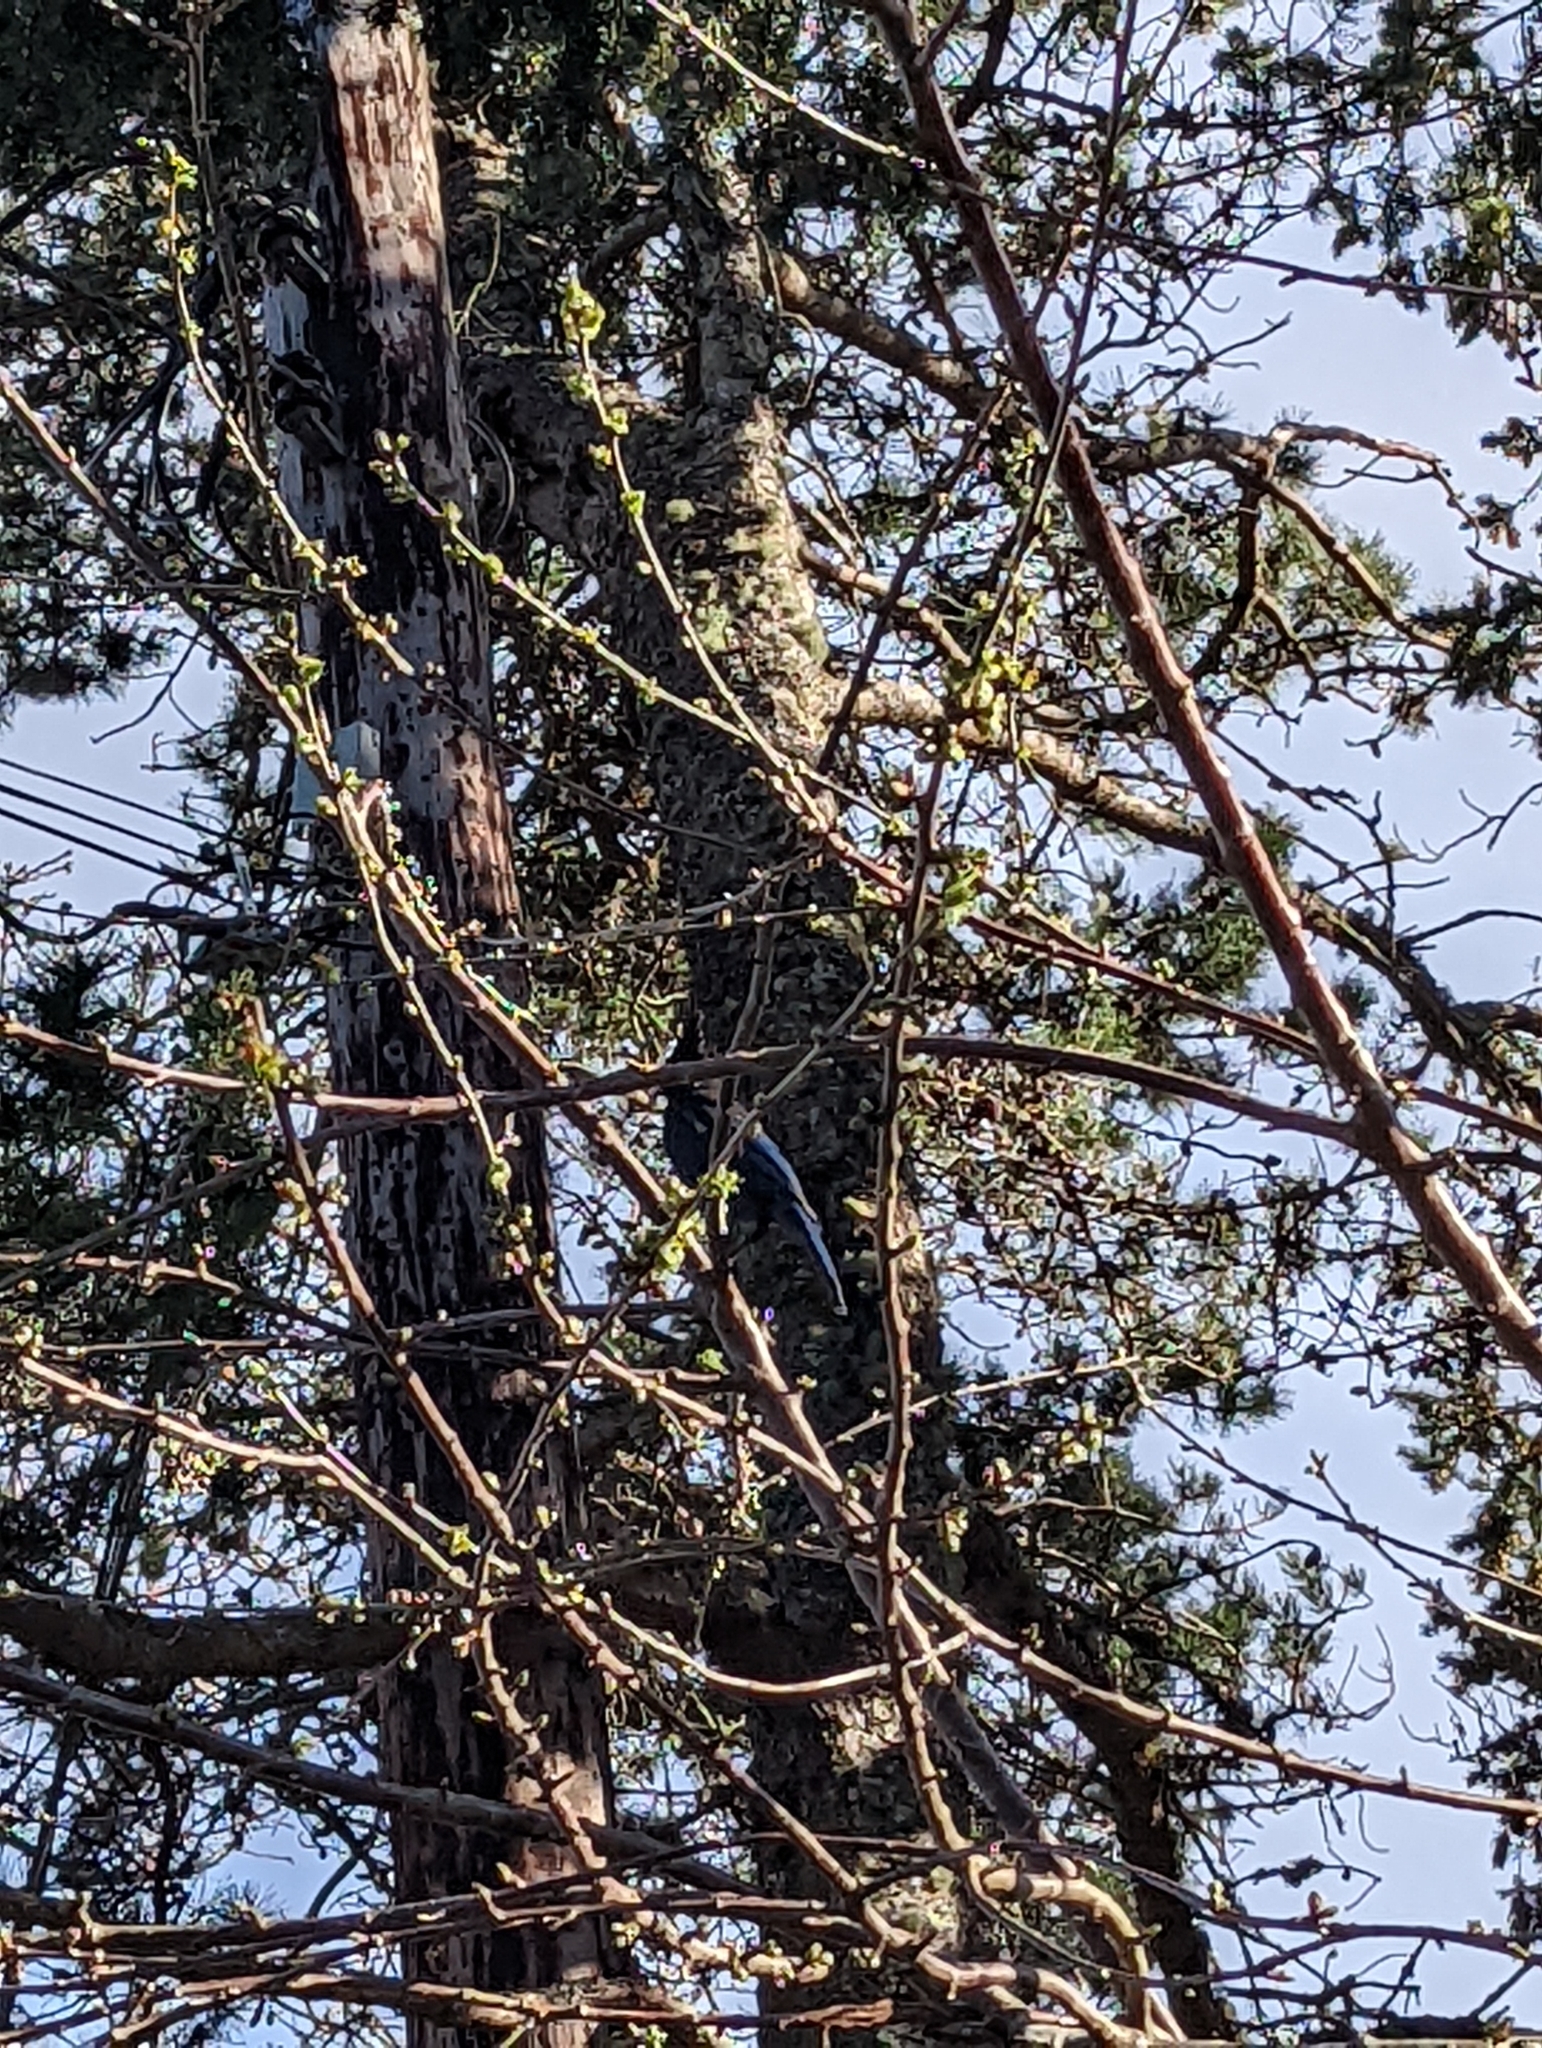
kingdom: Animalia
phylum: Chordata
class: Aves
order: Passeriformes
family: Corvidae
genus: Cyanocitta
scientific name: Cyanocitta stelleri
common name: Steller's jay
